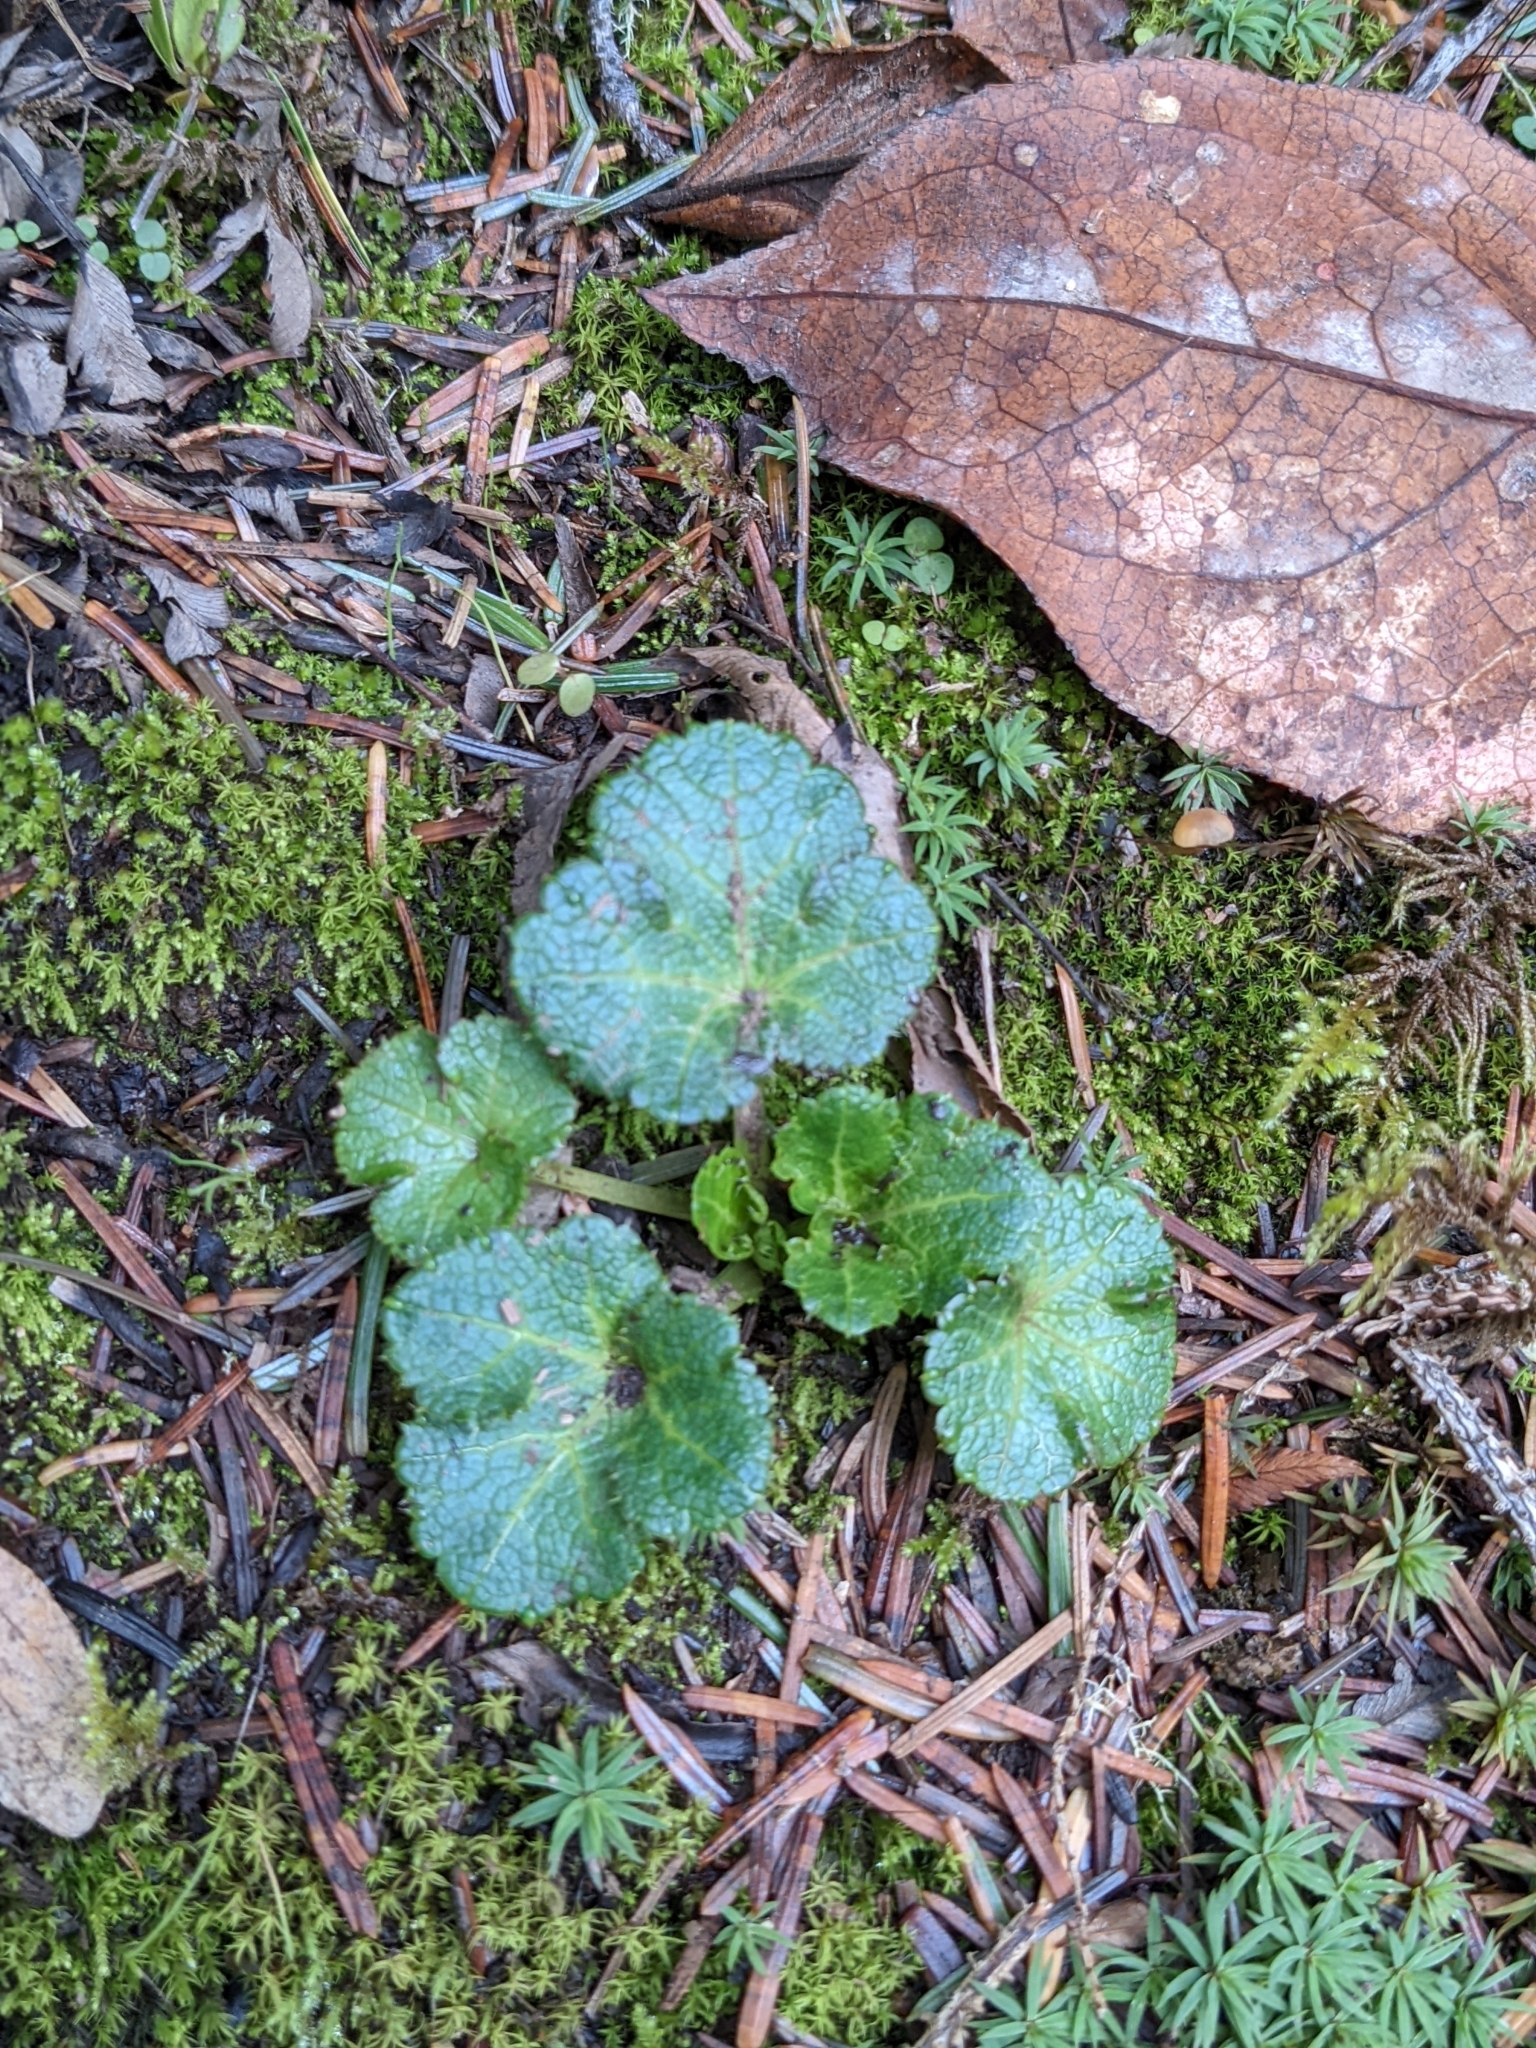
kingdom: Plantae
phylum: Tracheophyta
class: Magnoliopsida
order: Apiales
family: Apiaceae
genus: Sanicula
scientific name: Sanicula crassicaulis
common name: Western snakeroot
